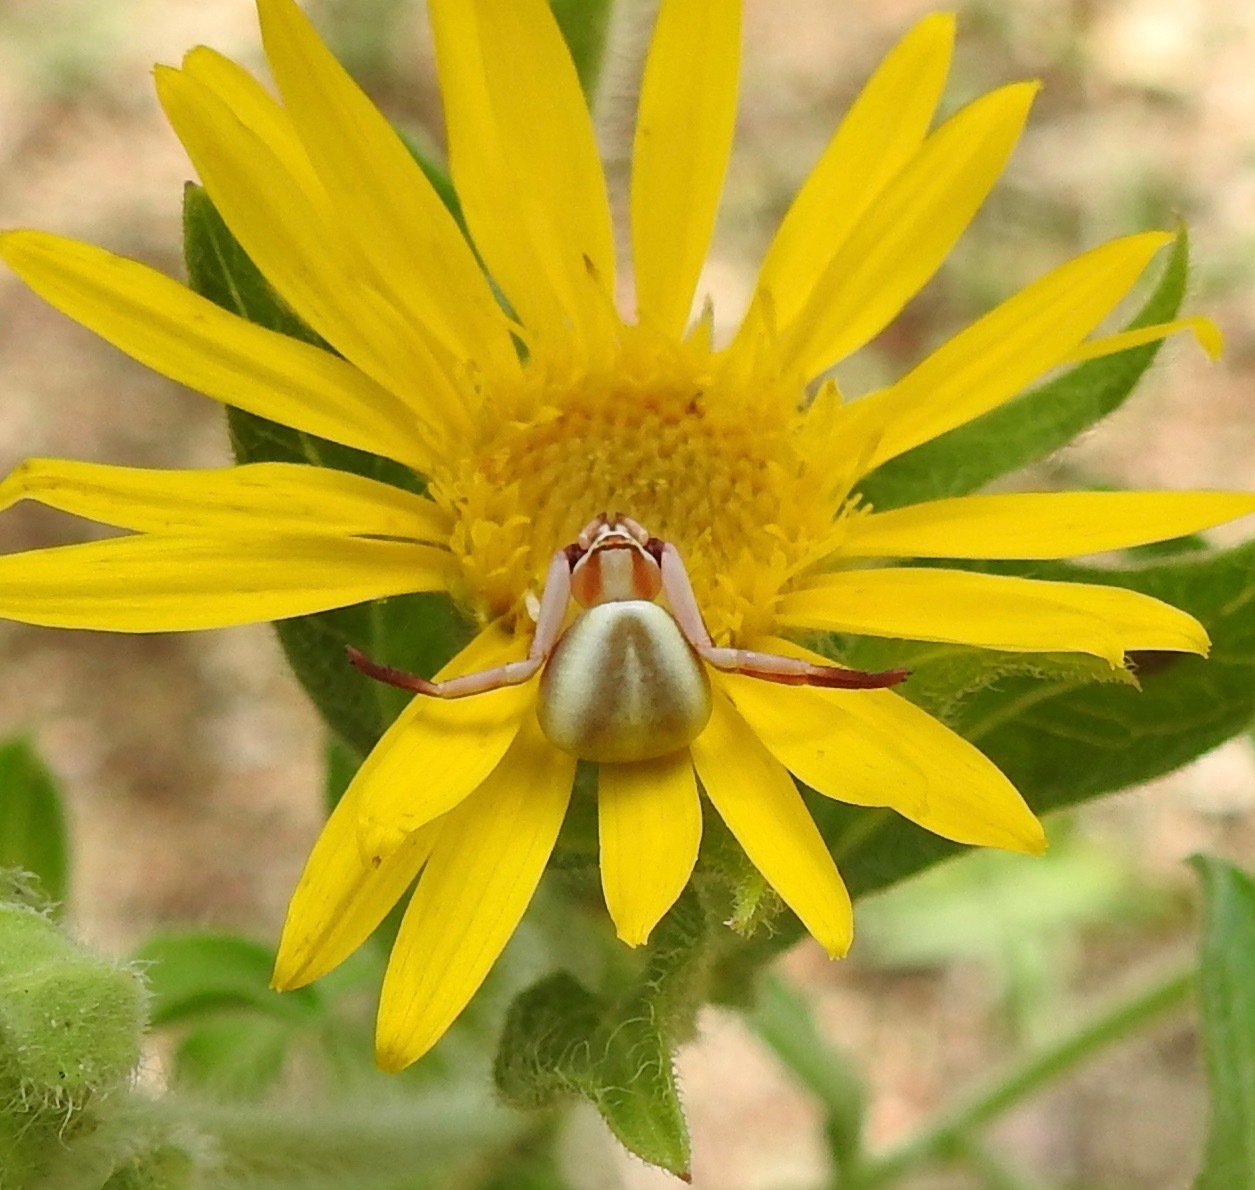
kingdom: Animalia
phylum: Arthropoda
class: Arachnida
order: Araneae
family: Thomisidae
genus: Misumenoides
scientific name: Misumenoides formosipes
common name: White-banded crab spider
